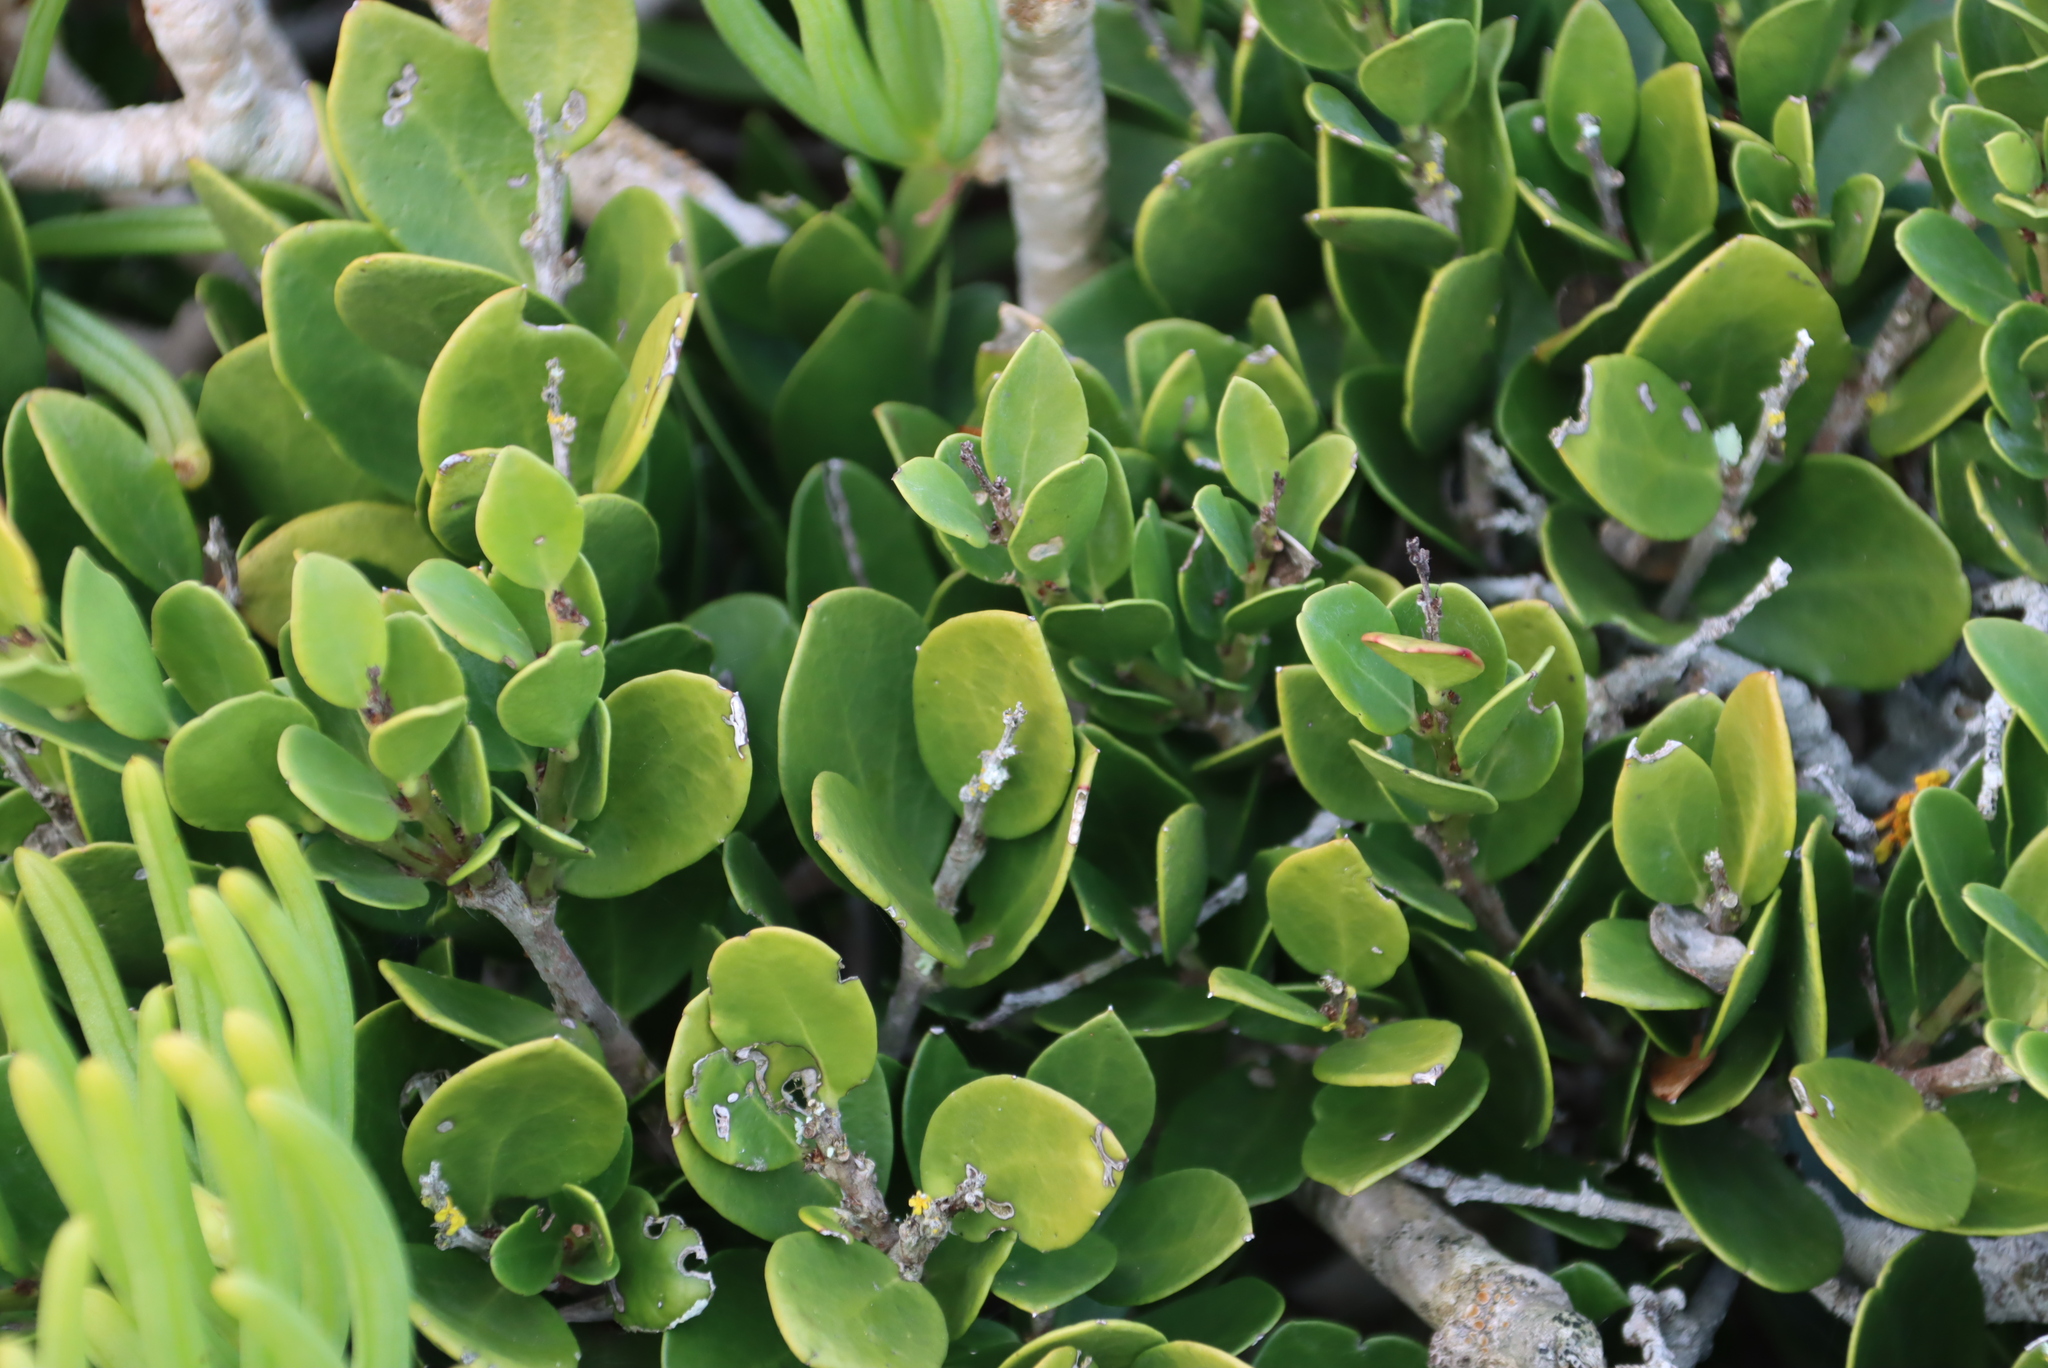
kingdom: Plantae
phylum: Tracheophyta
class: Magnoliopsida
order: Celastrales
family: Celastraceae
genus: Gymnosporia
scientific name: Gymnosporia lucida
